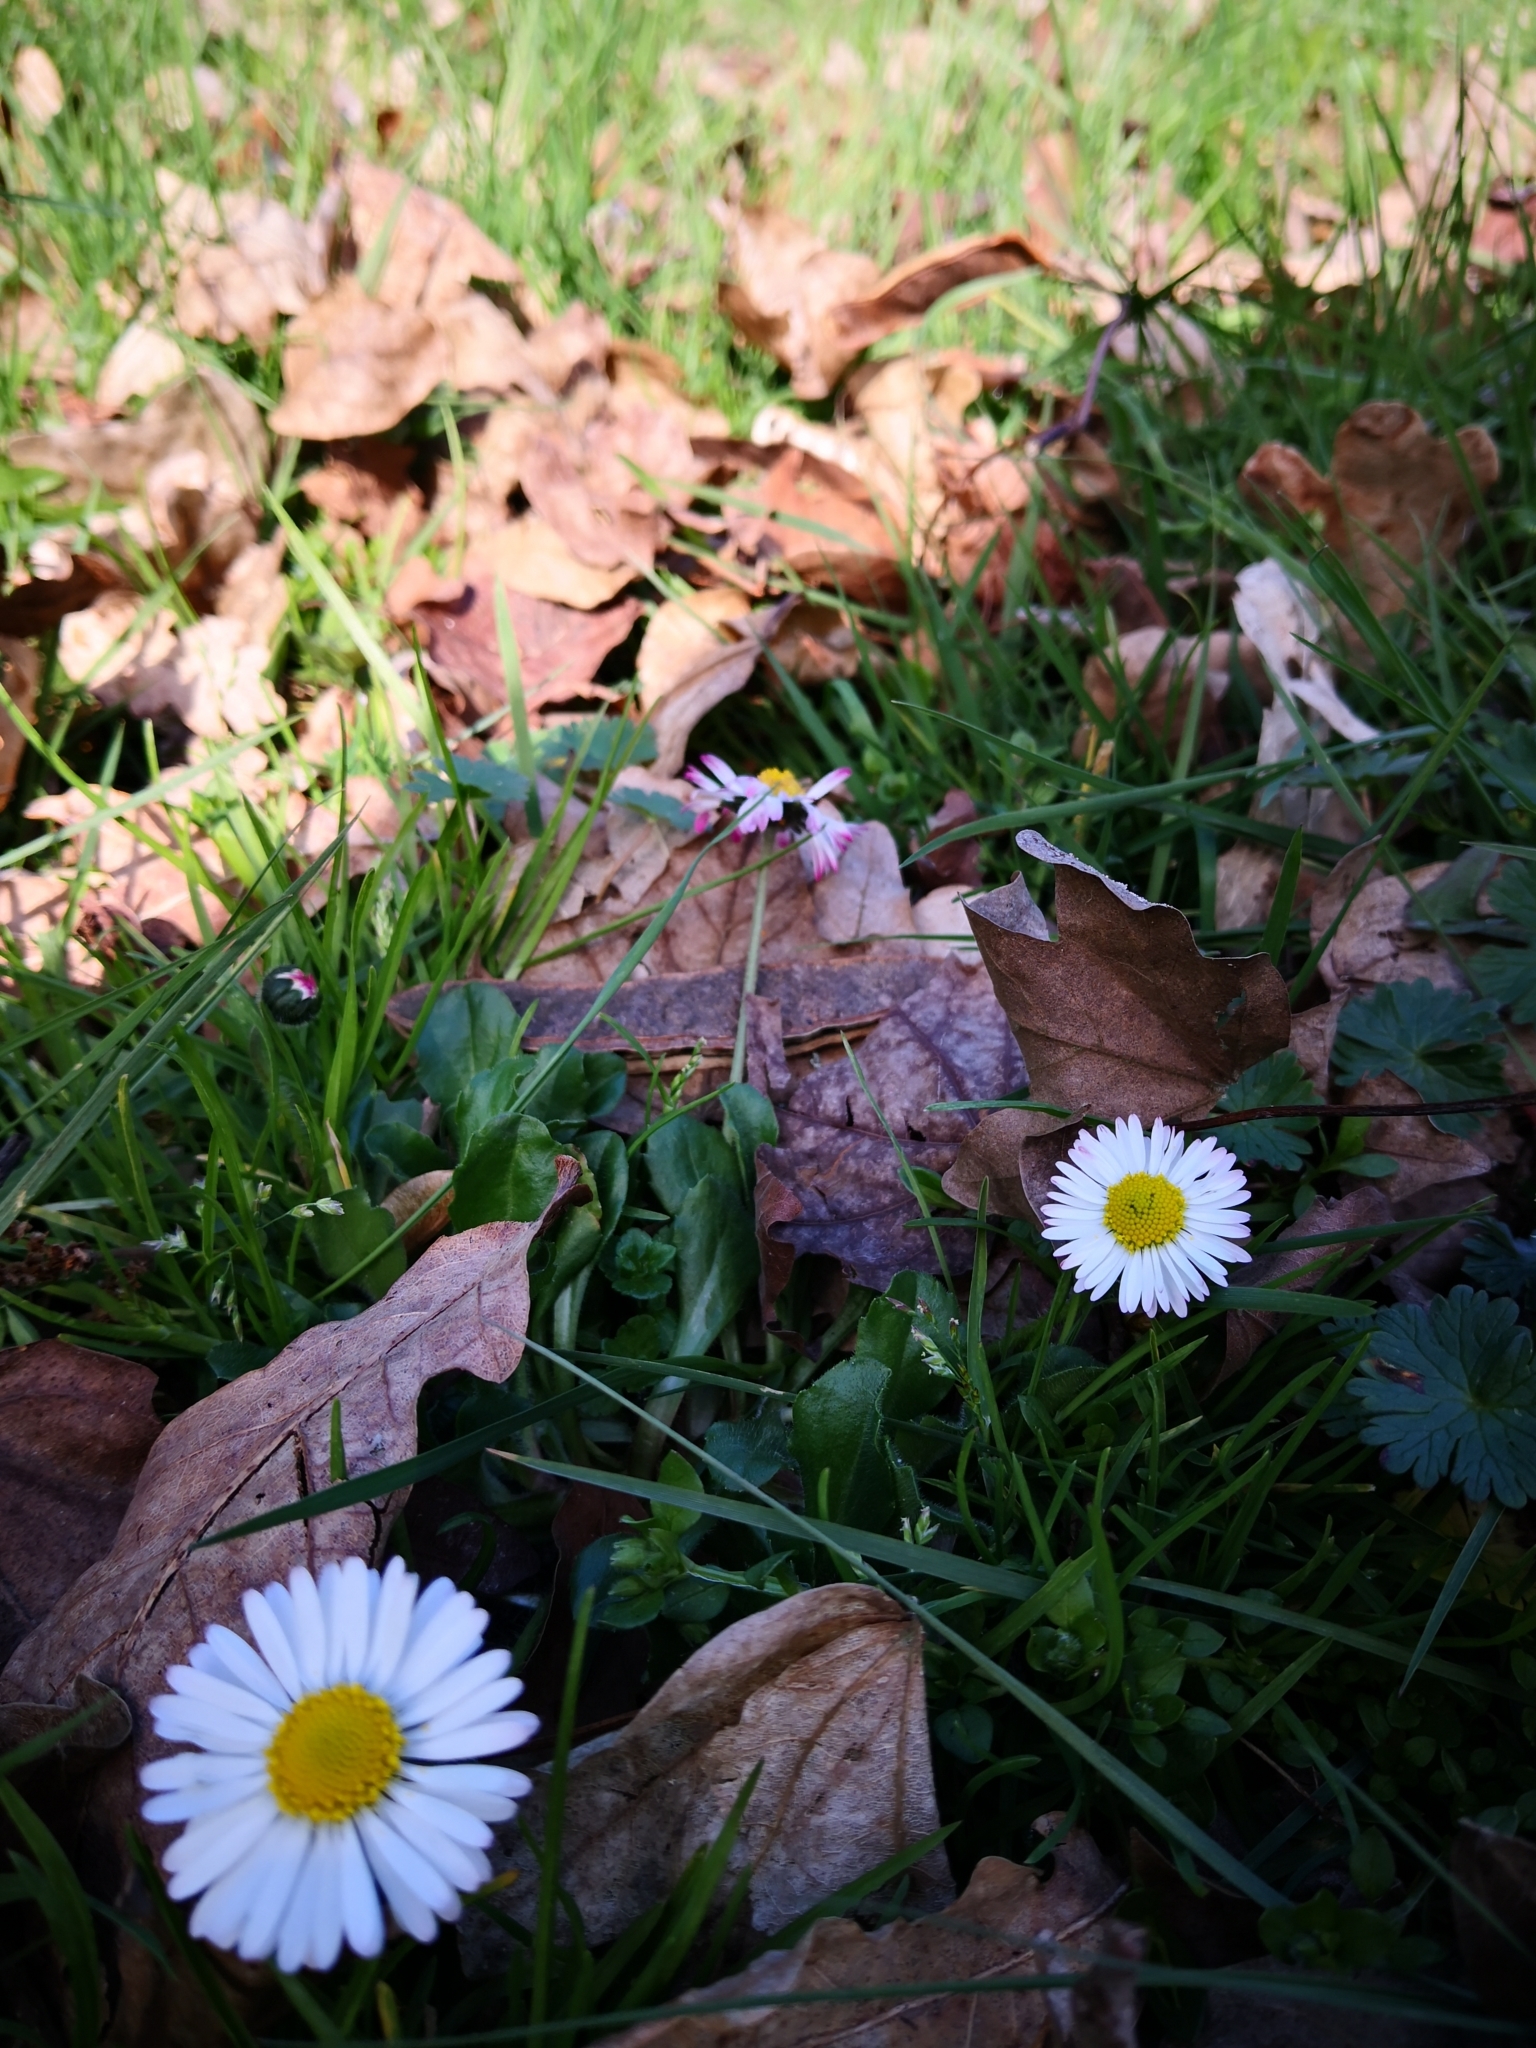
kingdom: Plantae
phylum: Tracheophyta
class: Magnoliopsida
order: Asterales
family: Asteraceae
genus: Bellis
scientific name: Bellis perennis
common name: Lawndaisy
